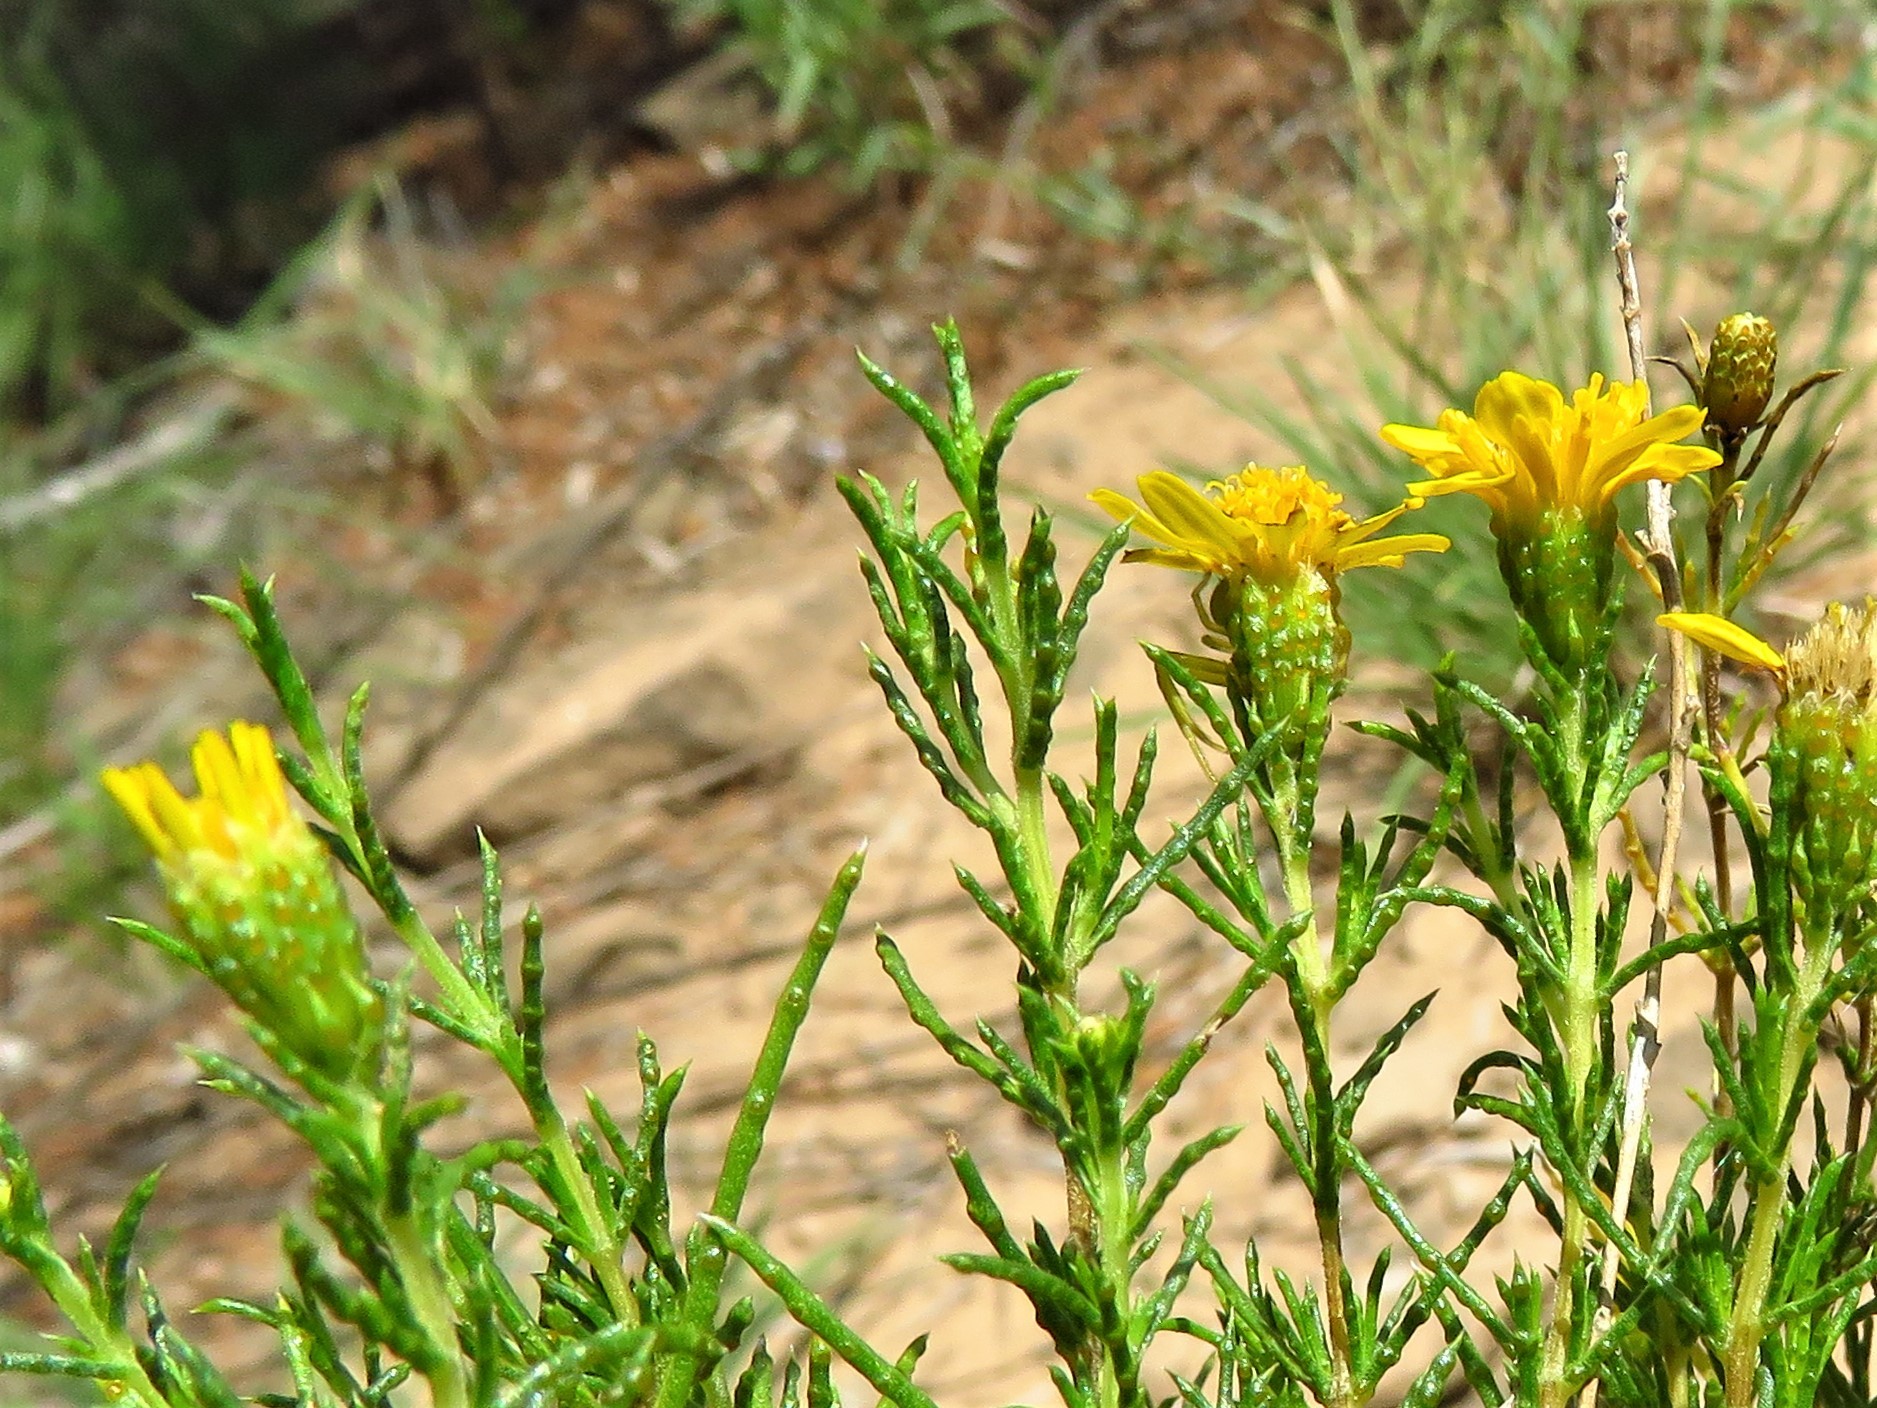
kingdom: Plantae
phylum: Tracheophyta
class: Magnoliopsida
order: Asterales
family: Asteraceae
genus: Thymophylla
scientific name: Thymophylla acerosa
